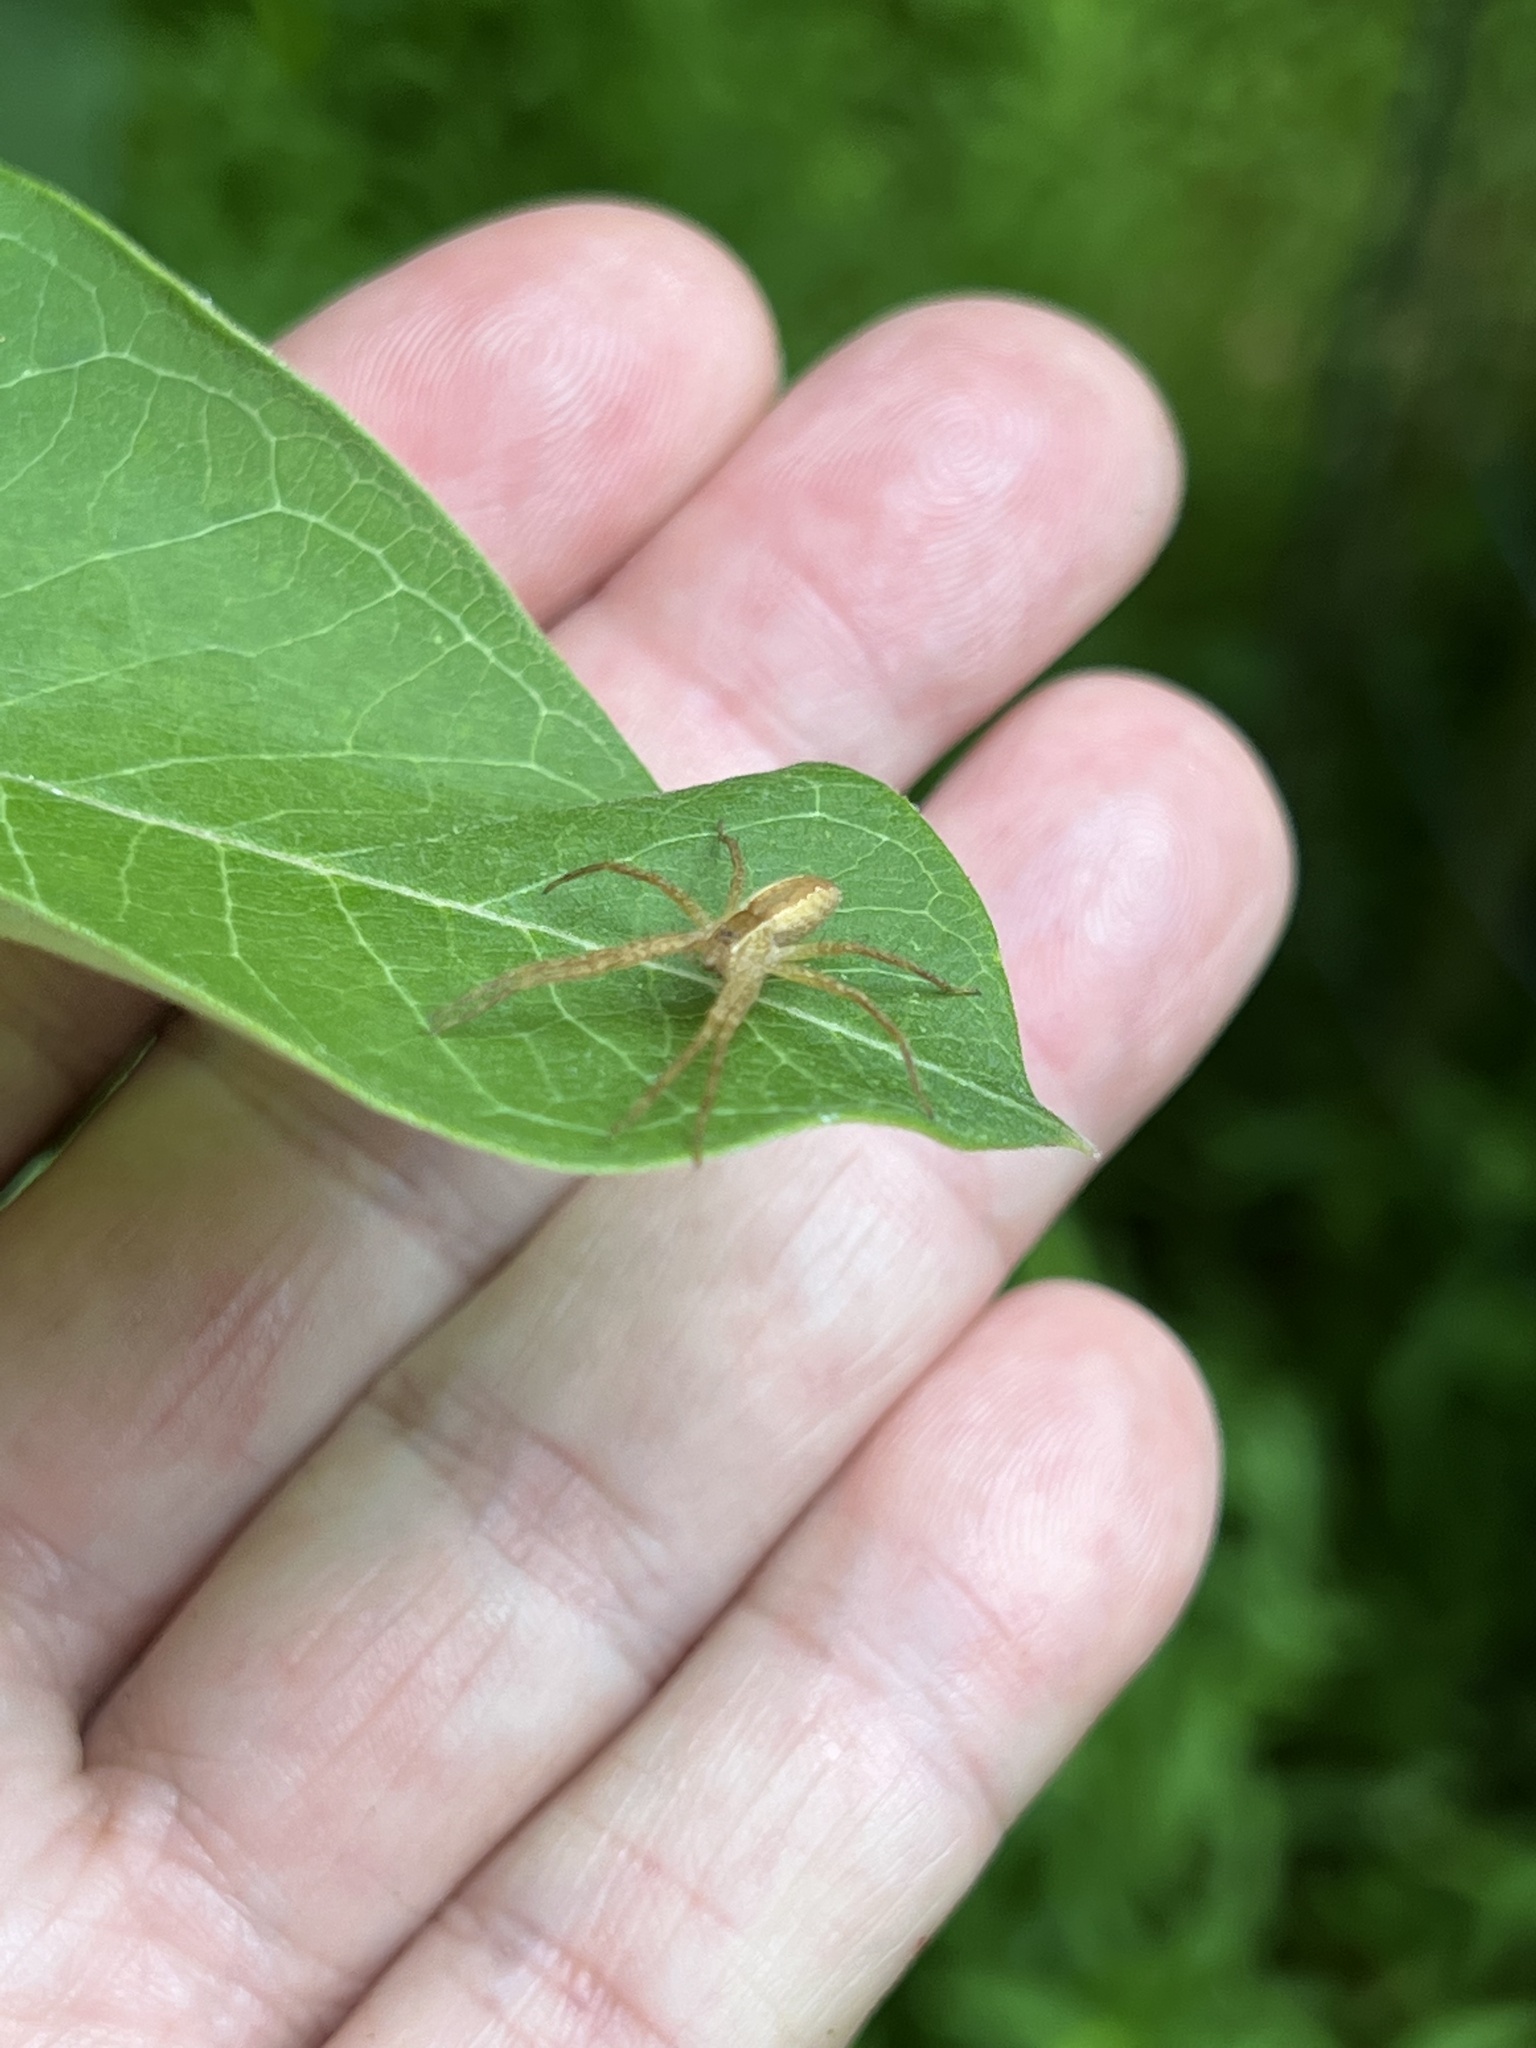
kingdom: Animalia
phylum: Arthropoda
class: Arachnida
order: Araneae
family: Pisauridae
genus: Pisaurina
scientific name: Pisaurina mira
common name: American nursery web spider
